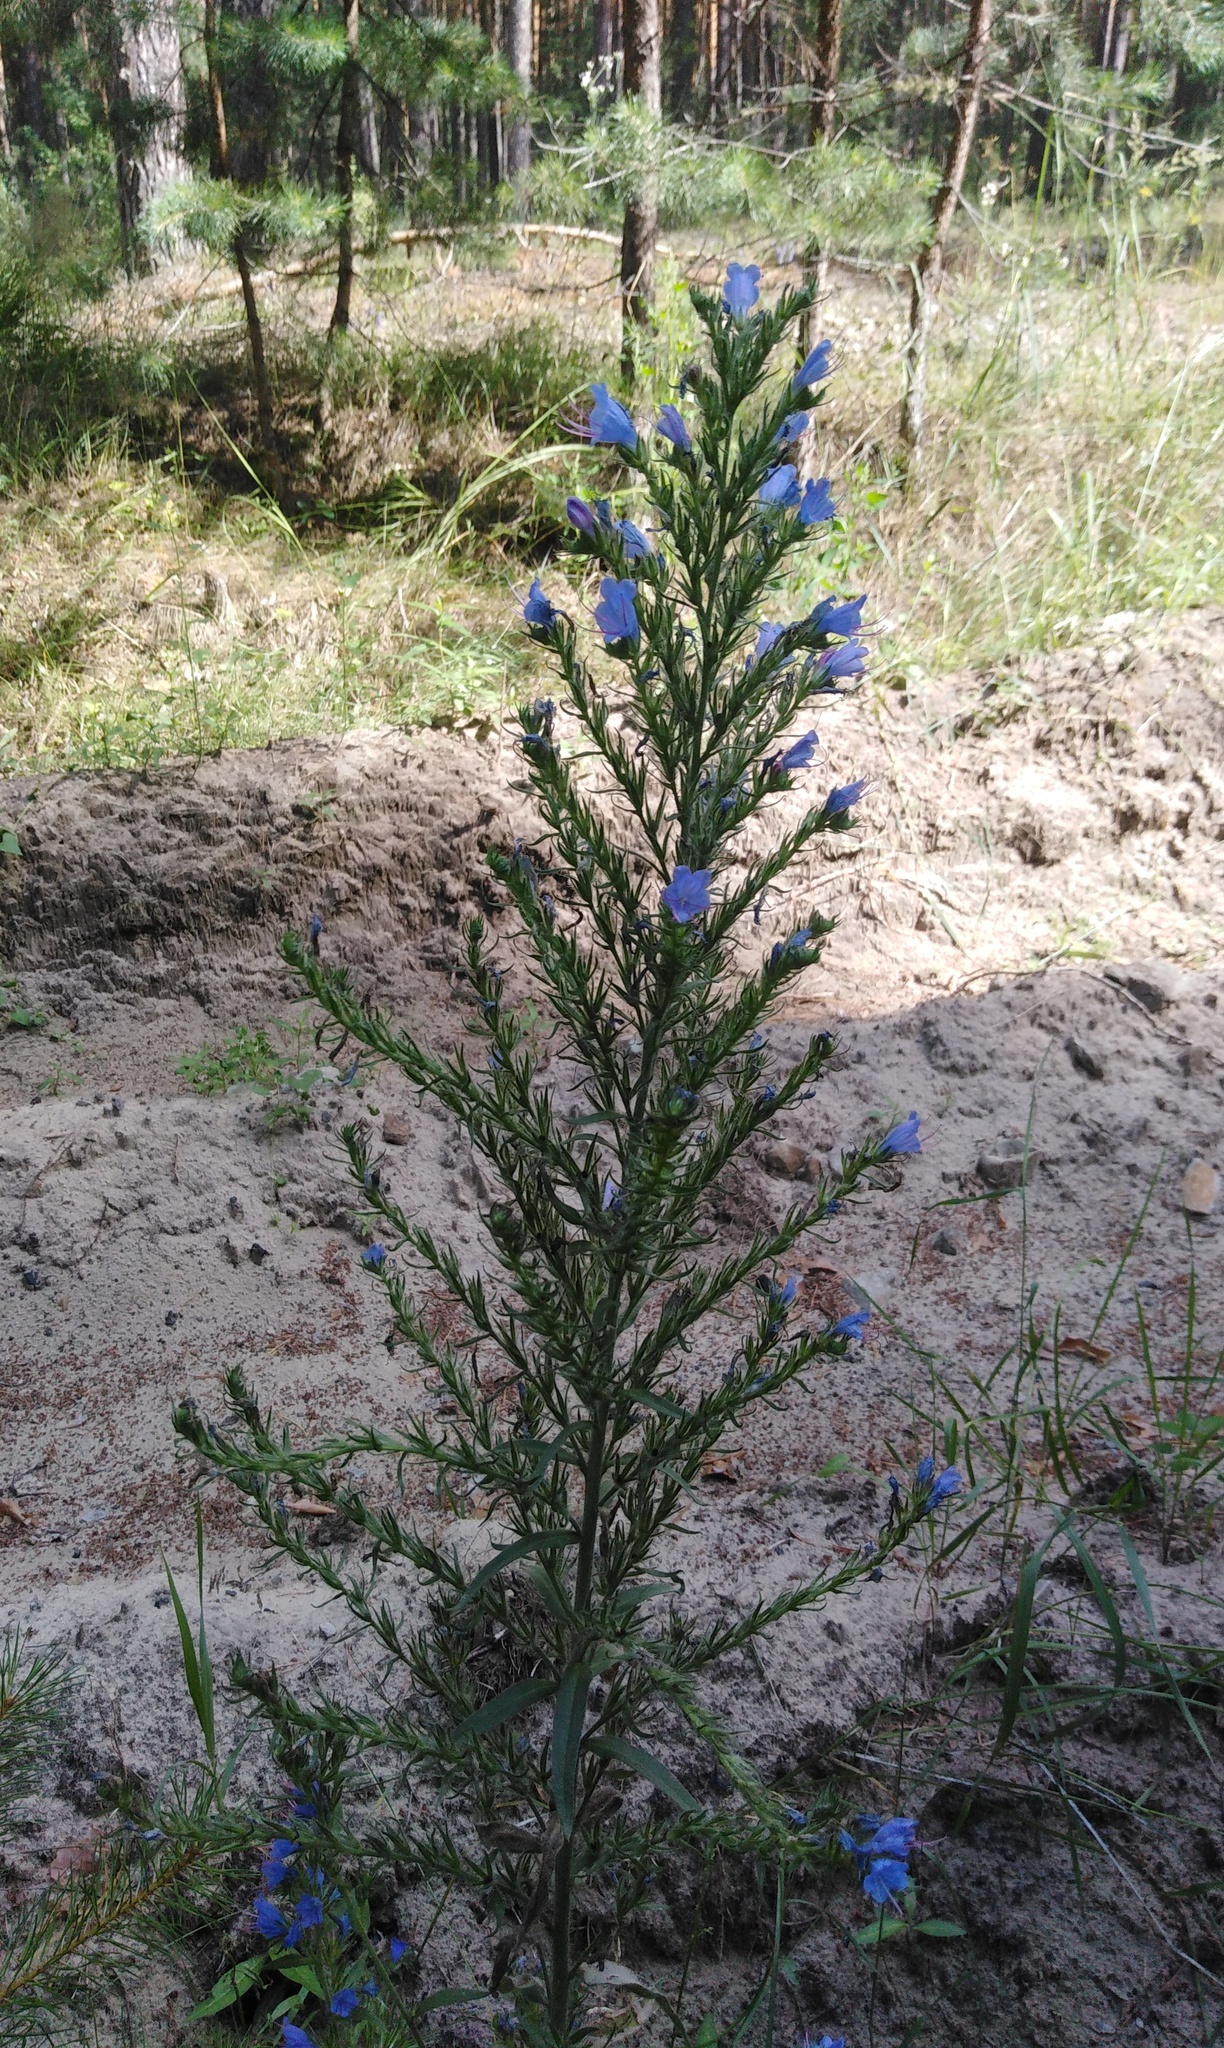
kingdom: Plantae
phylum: Tracheophyta
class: Magnoliopsida
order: Boraginales
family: Boraginaceae
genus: Echium
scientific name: Echium vulgare
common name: Common viper's bugloss
